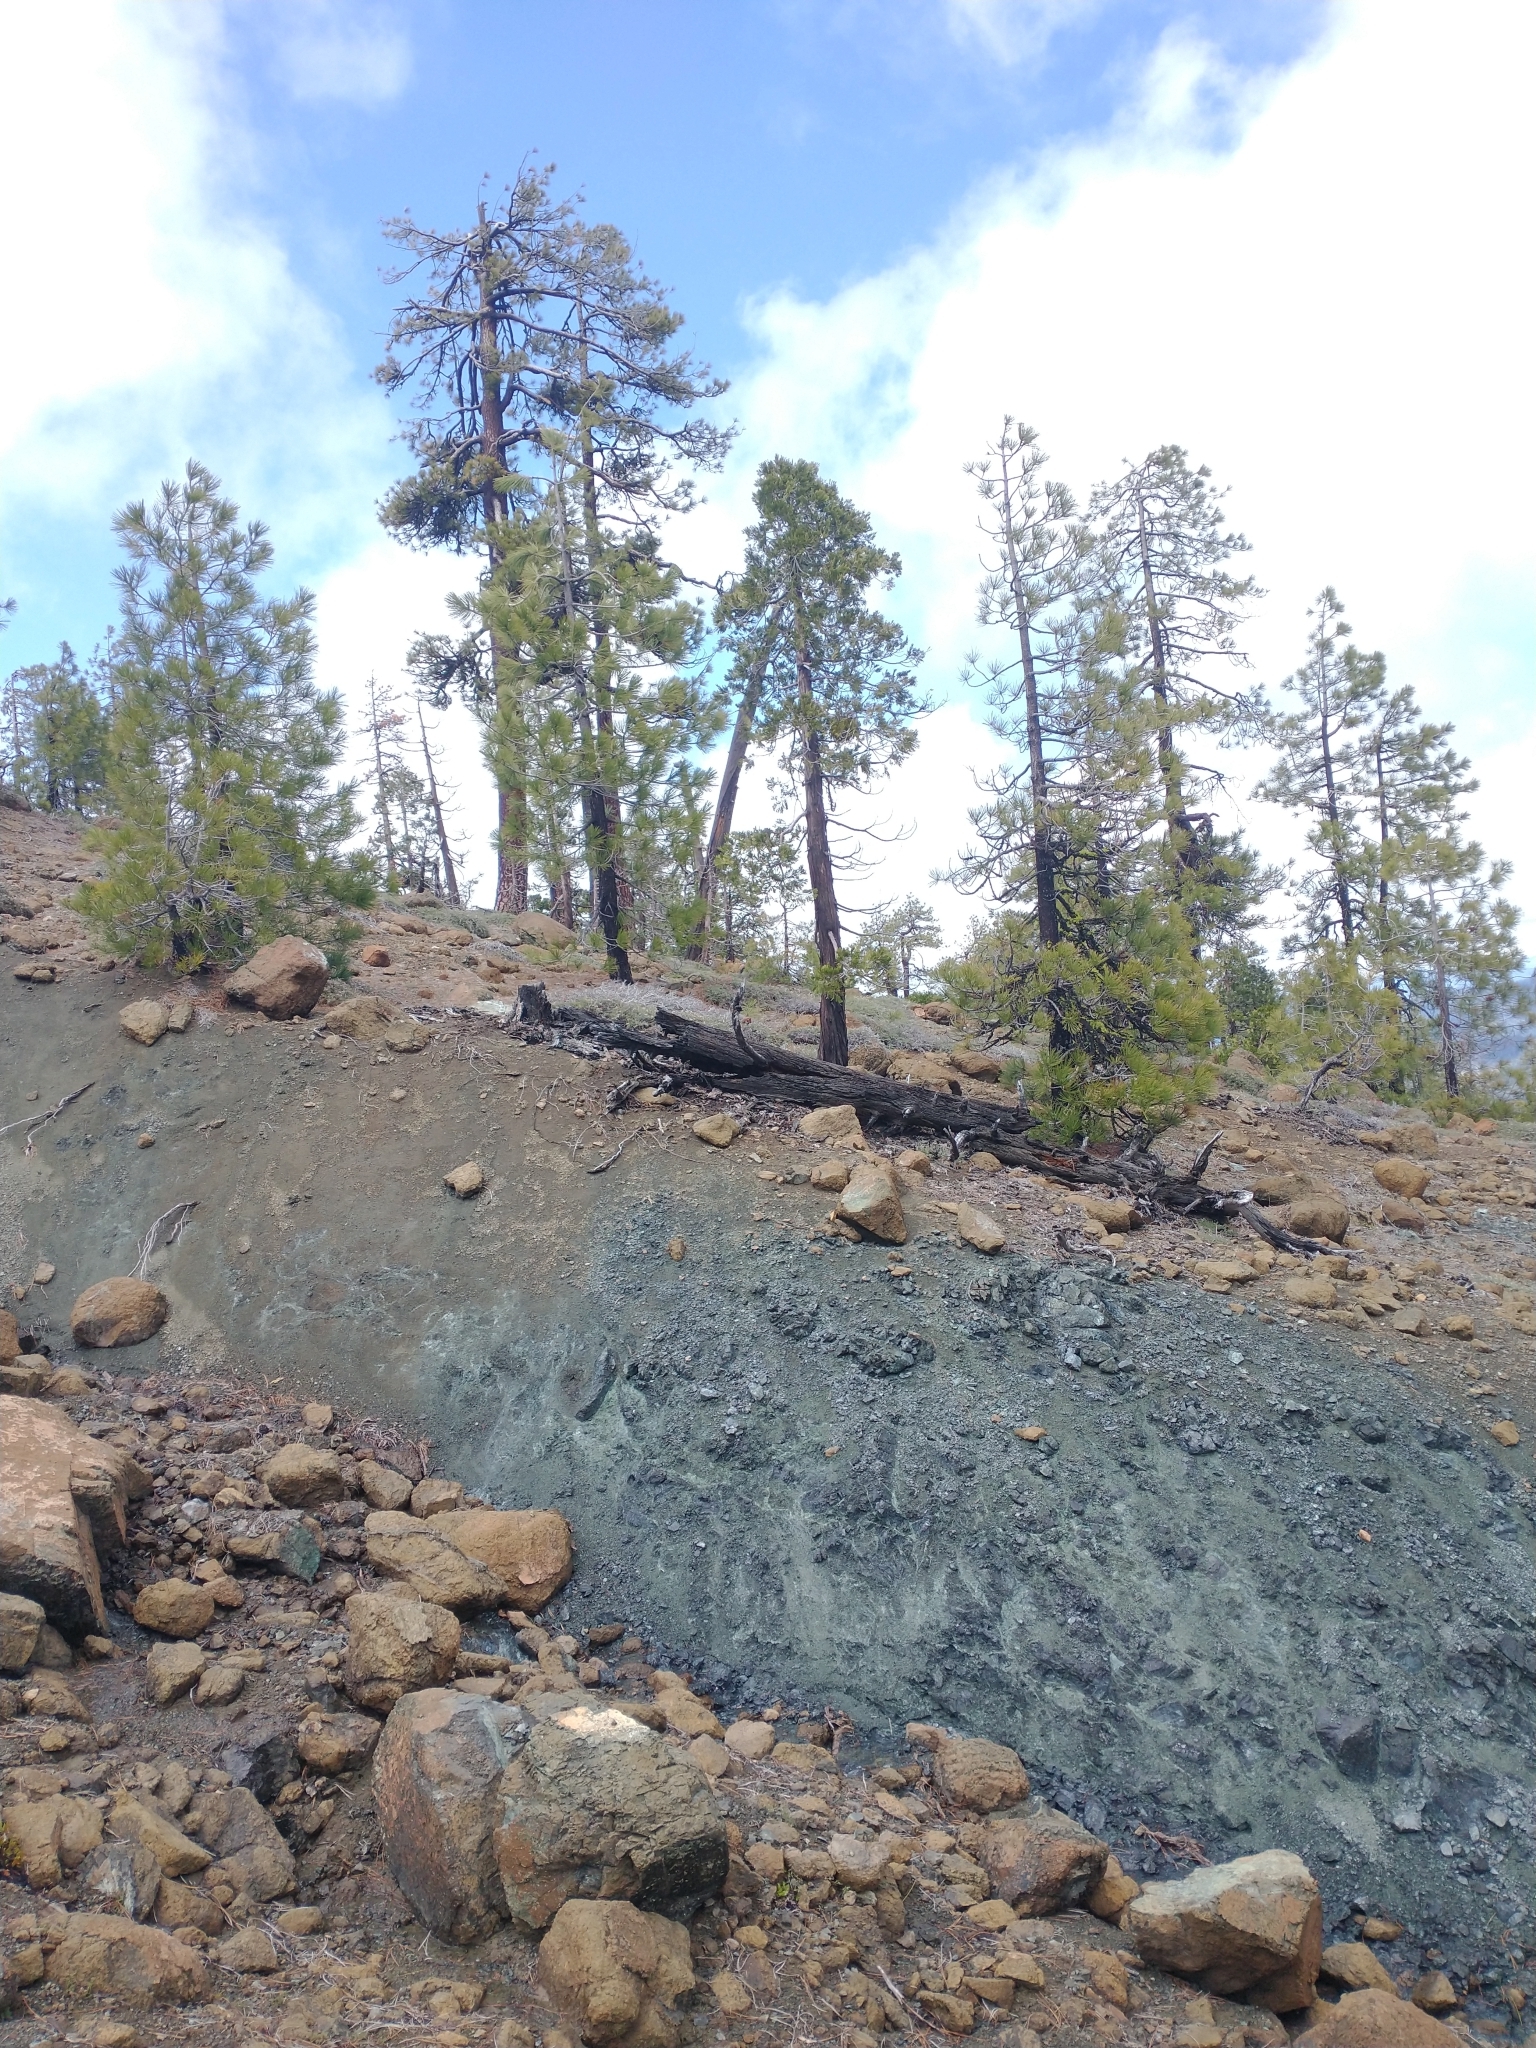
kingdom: Plantae
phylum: Tracheophyta
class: Pinopsida
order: Pinales
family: Pinaceae
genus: Pinus
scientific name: Pinus jeffreyi
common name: Jeffrey pine
